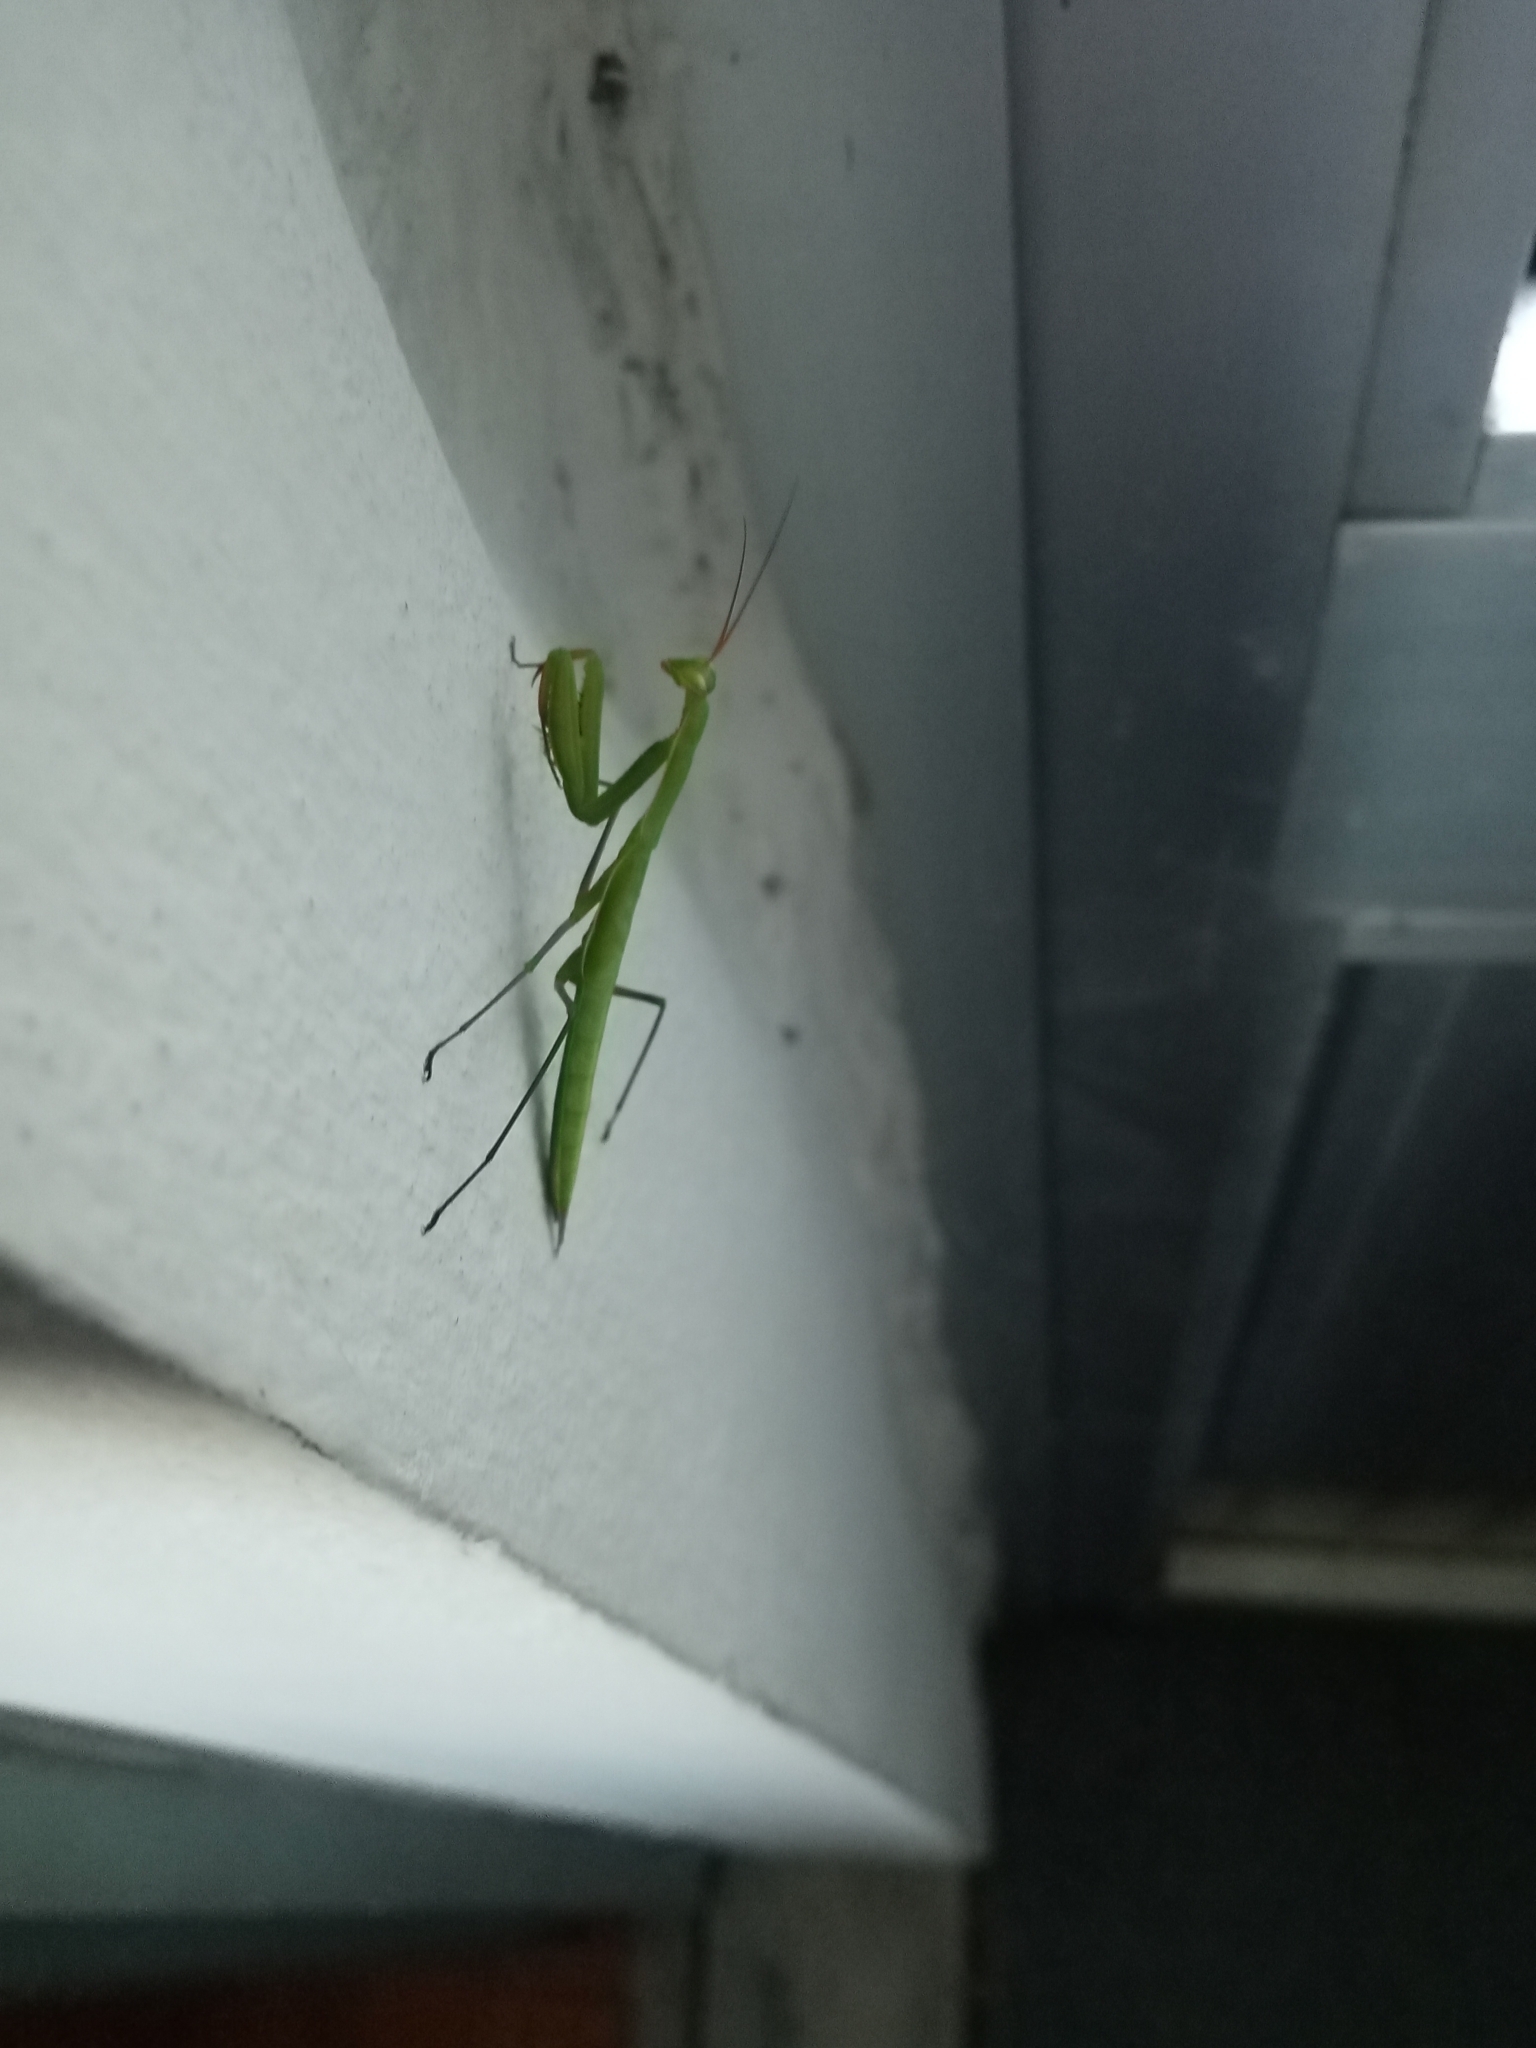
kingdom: Animalia
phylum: Arthropoda
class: Insecta
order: Mantodea
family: Mantidae
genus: Mantis
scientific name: Mantis religiosa
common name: Praying mantis
